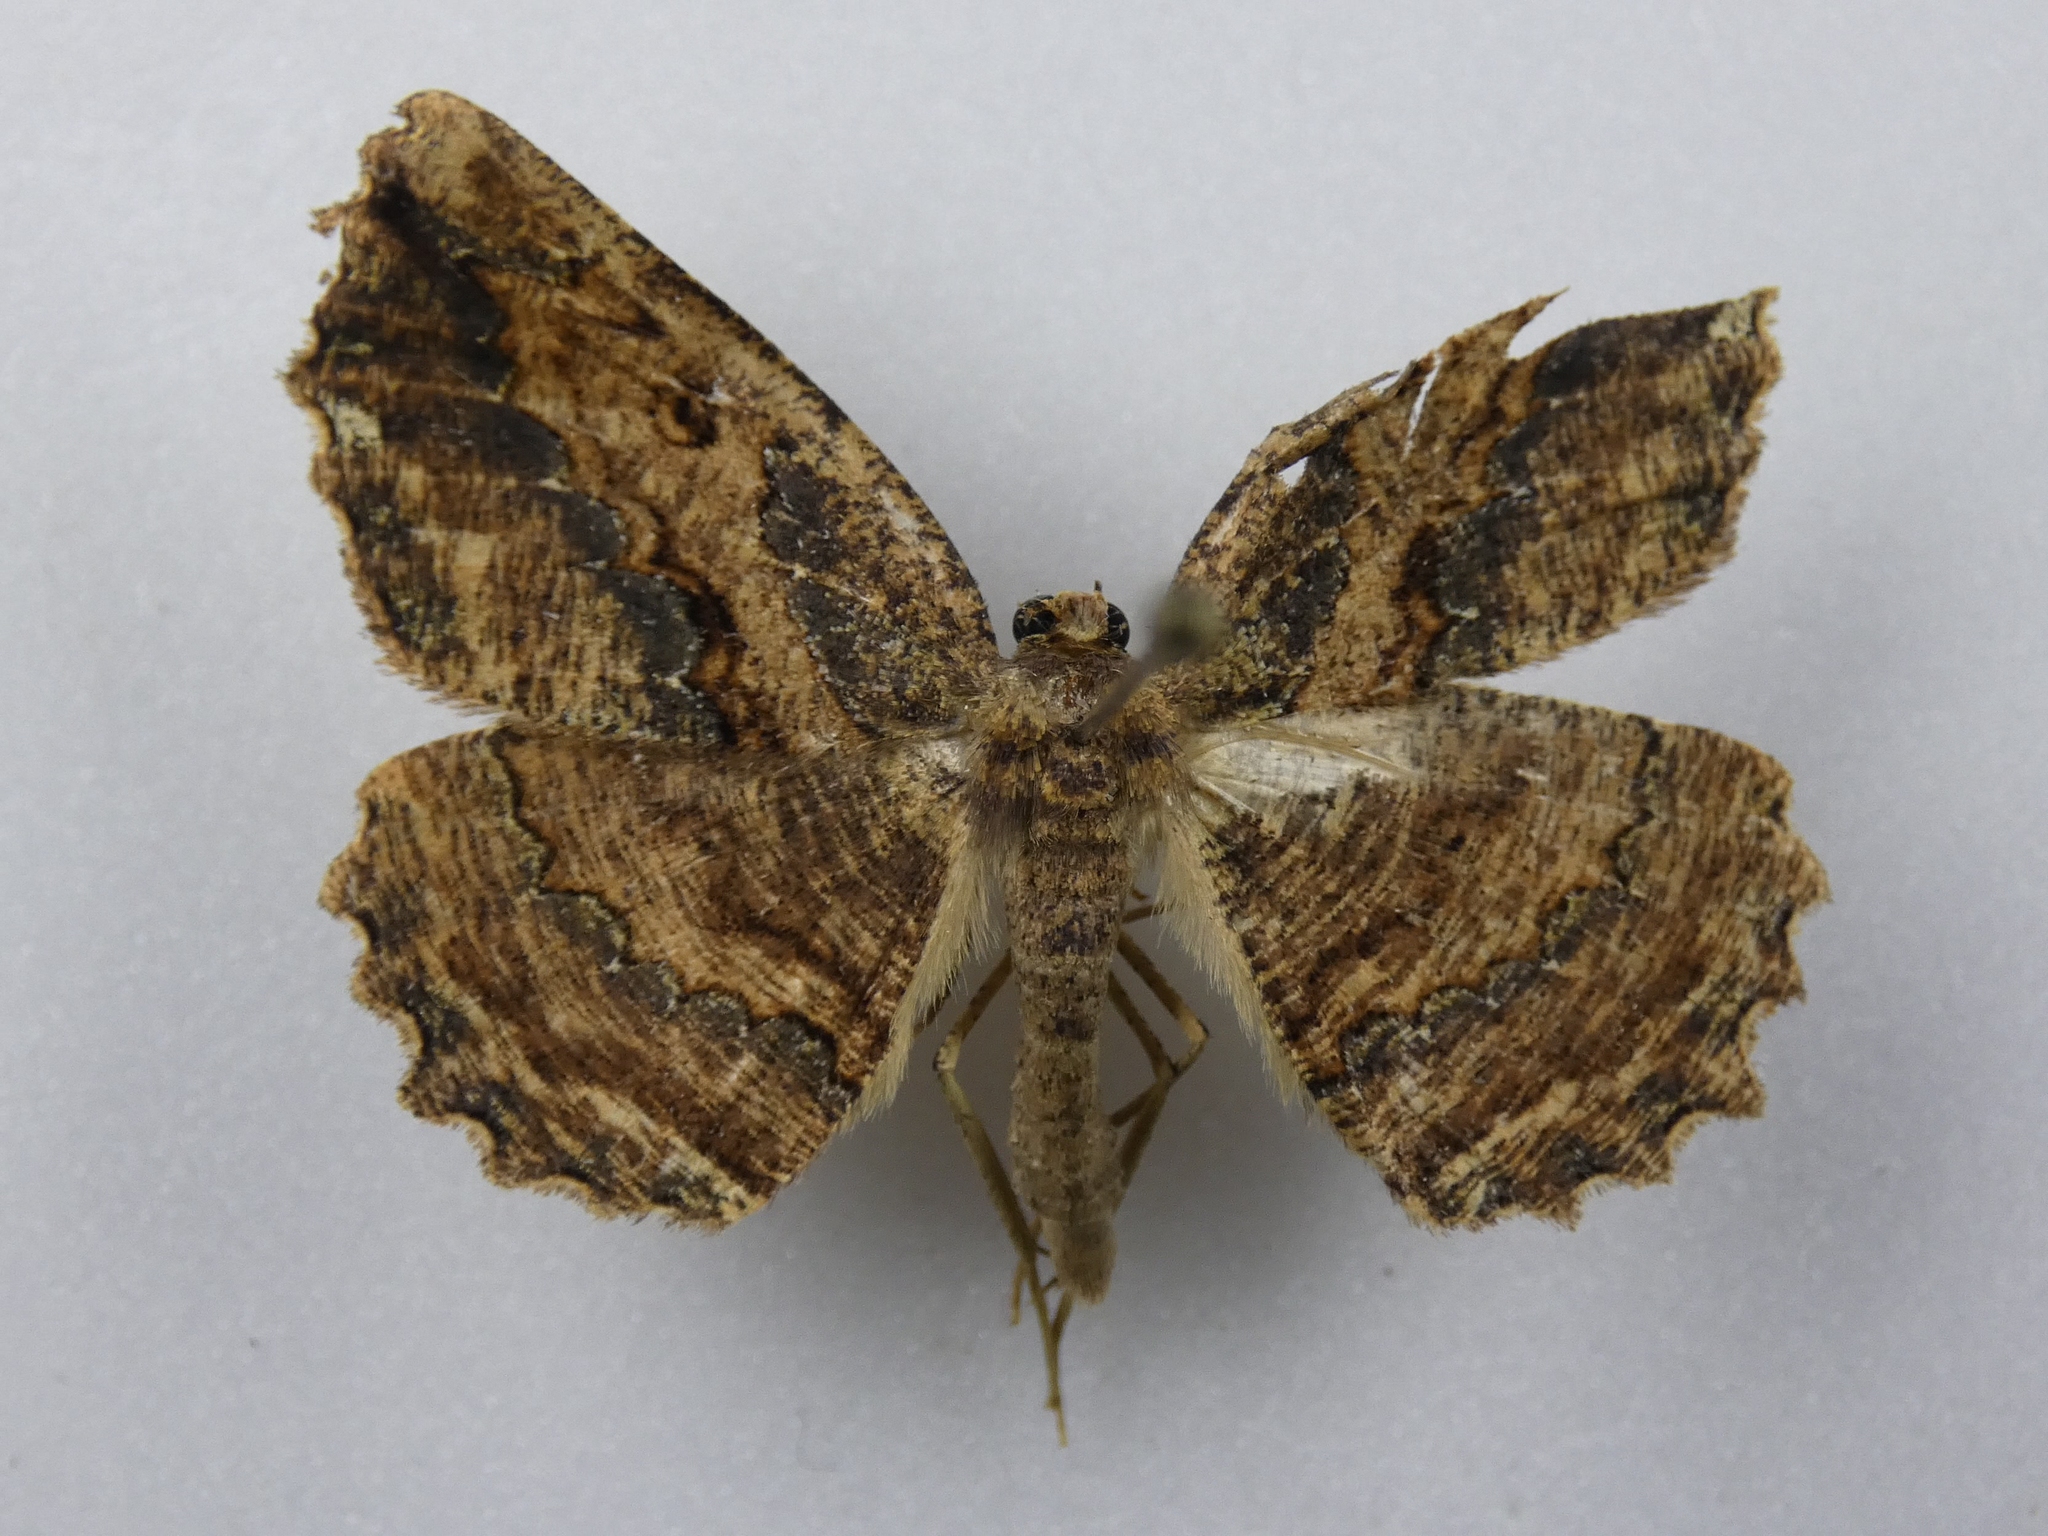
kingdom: Animalia
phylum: Arthropoda
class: Insecta
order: Lepidoptera
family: Geometridae
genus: Gellonia
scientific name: Gellonia pannularia
